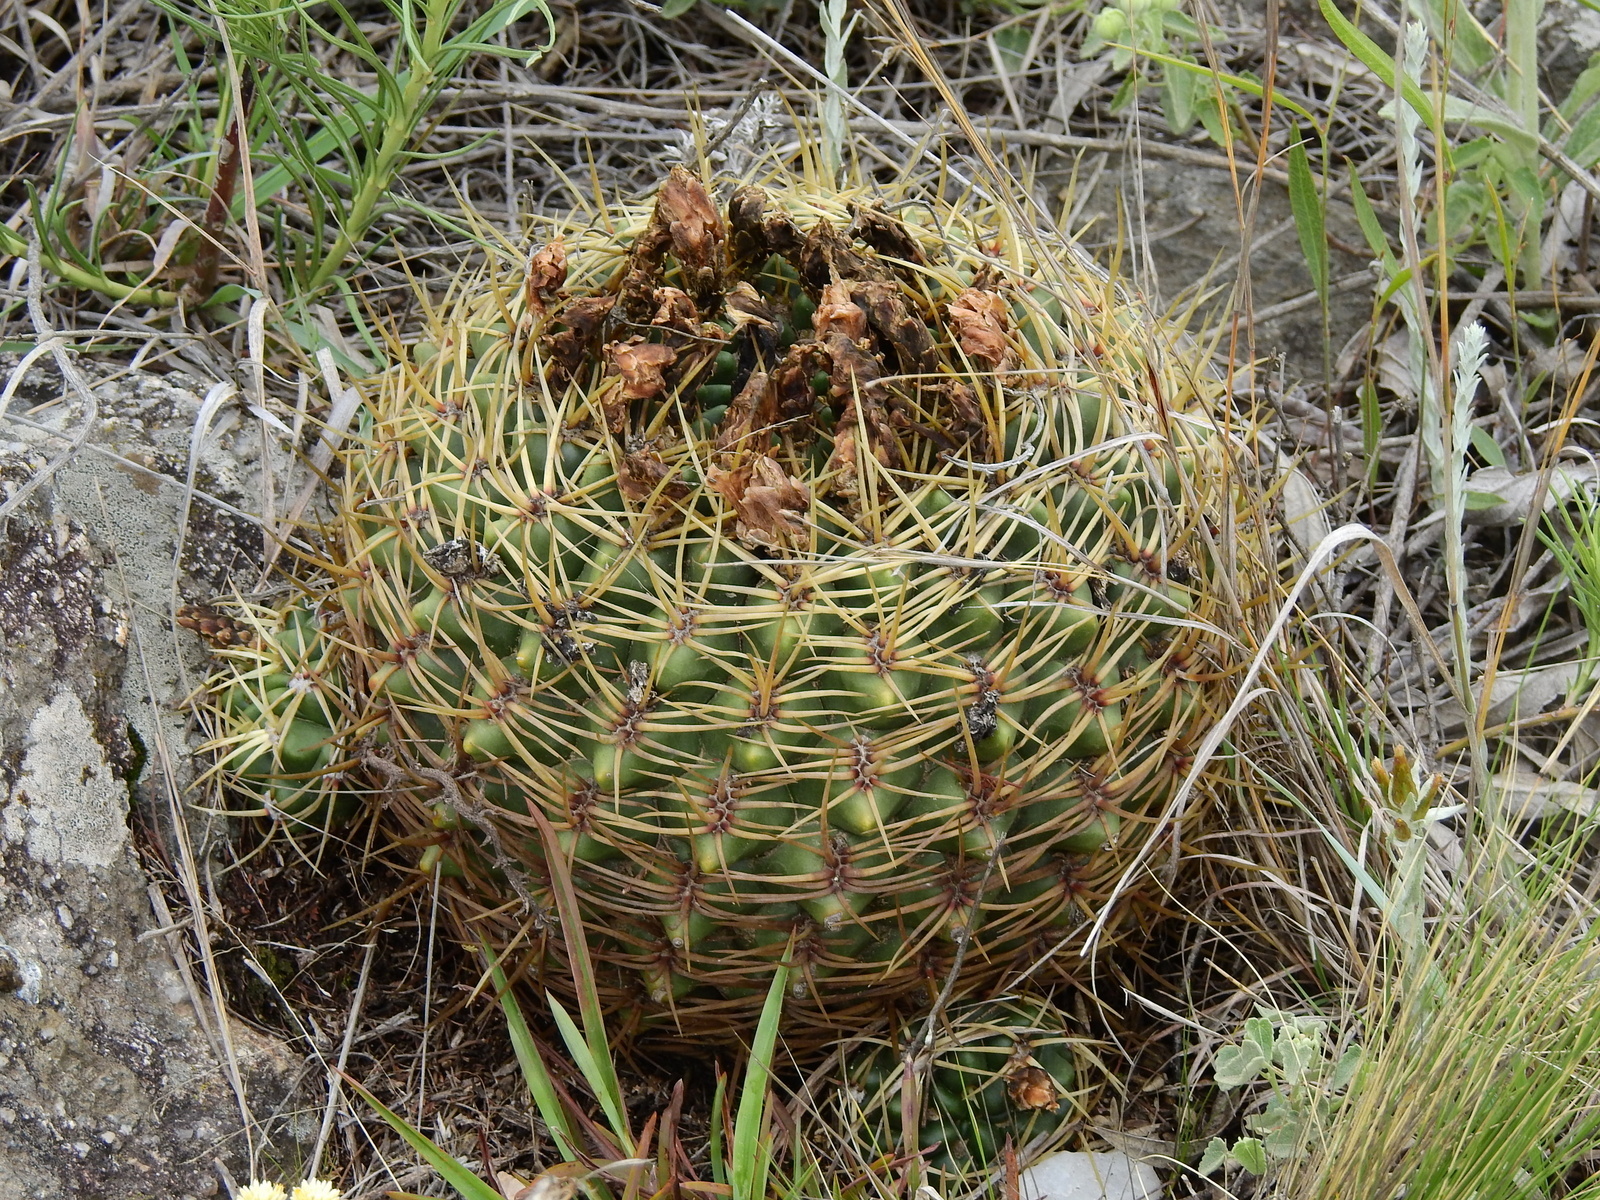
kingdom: Plantae
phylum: Tracheophyta
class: Magnoliopsida
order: Caryophyllales
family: Cactaceae
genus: Gymnocalycium
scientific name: Gymnocalycium monvillei
